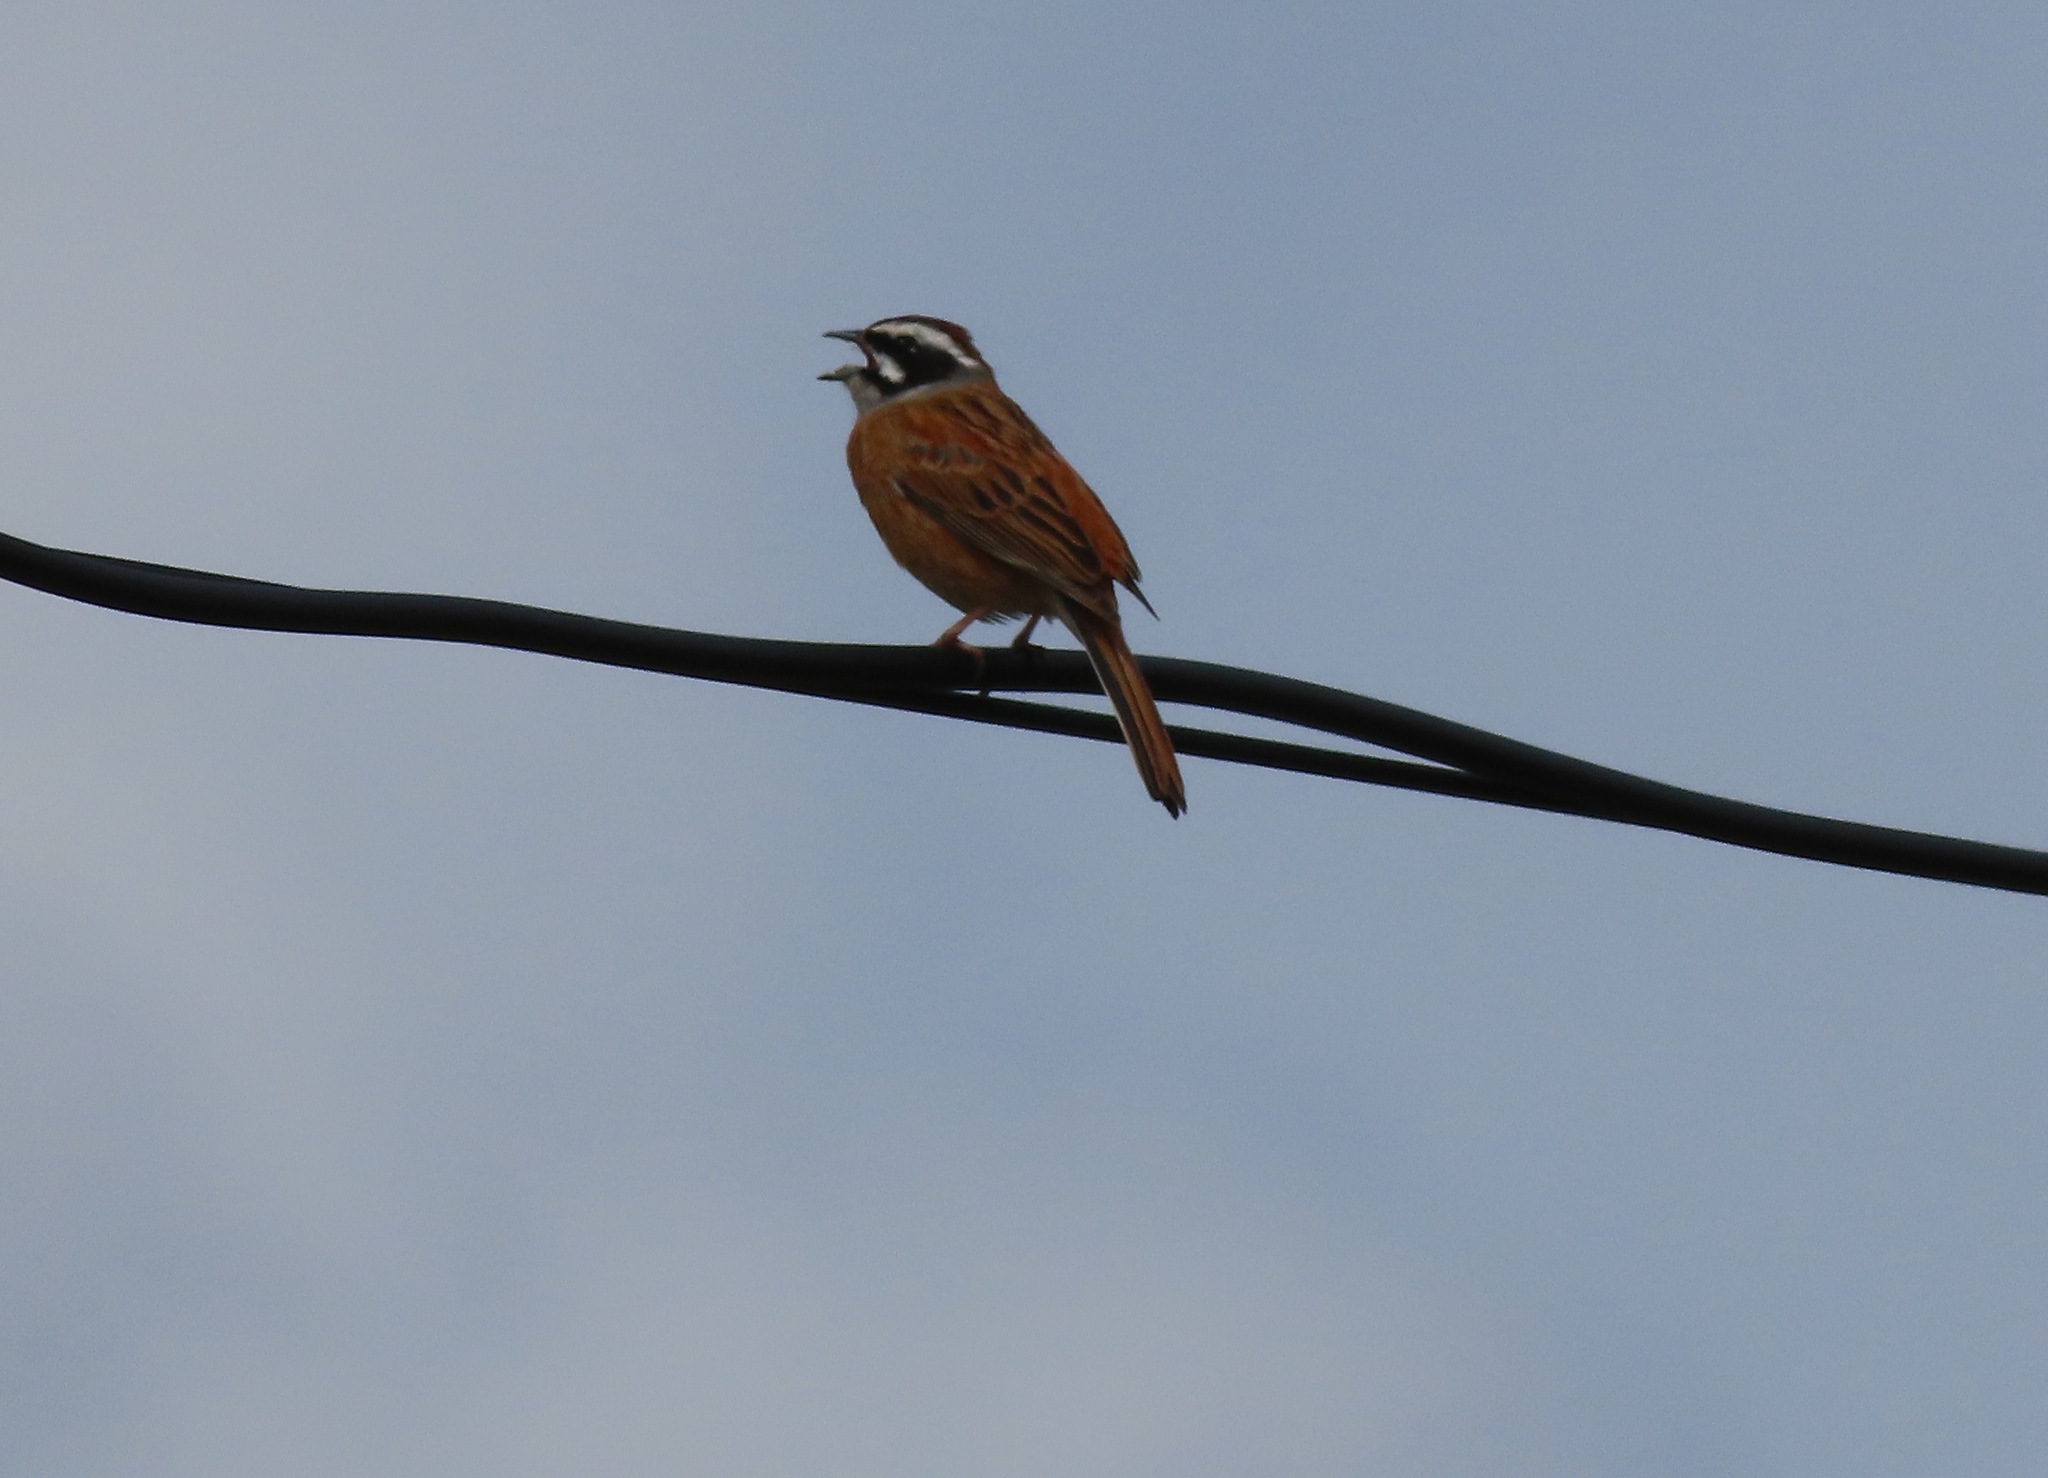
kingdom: Animalia
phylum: Chordata
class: Aves
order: Passeriformes
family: Emberizidae
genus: Emberiza
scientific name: Emberiza cioides
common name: Meadow bunting
